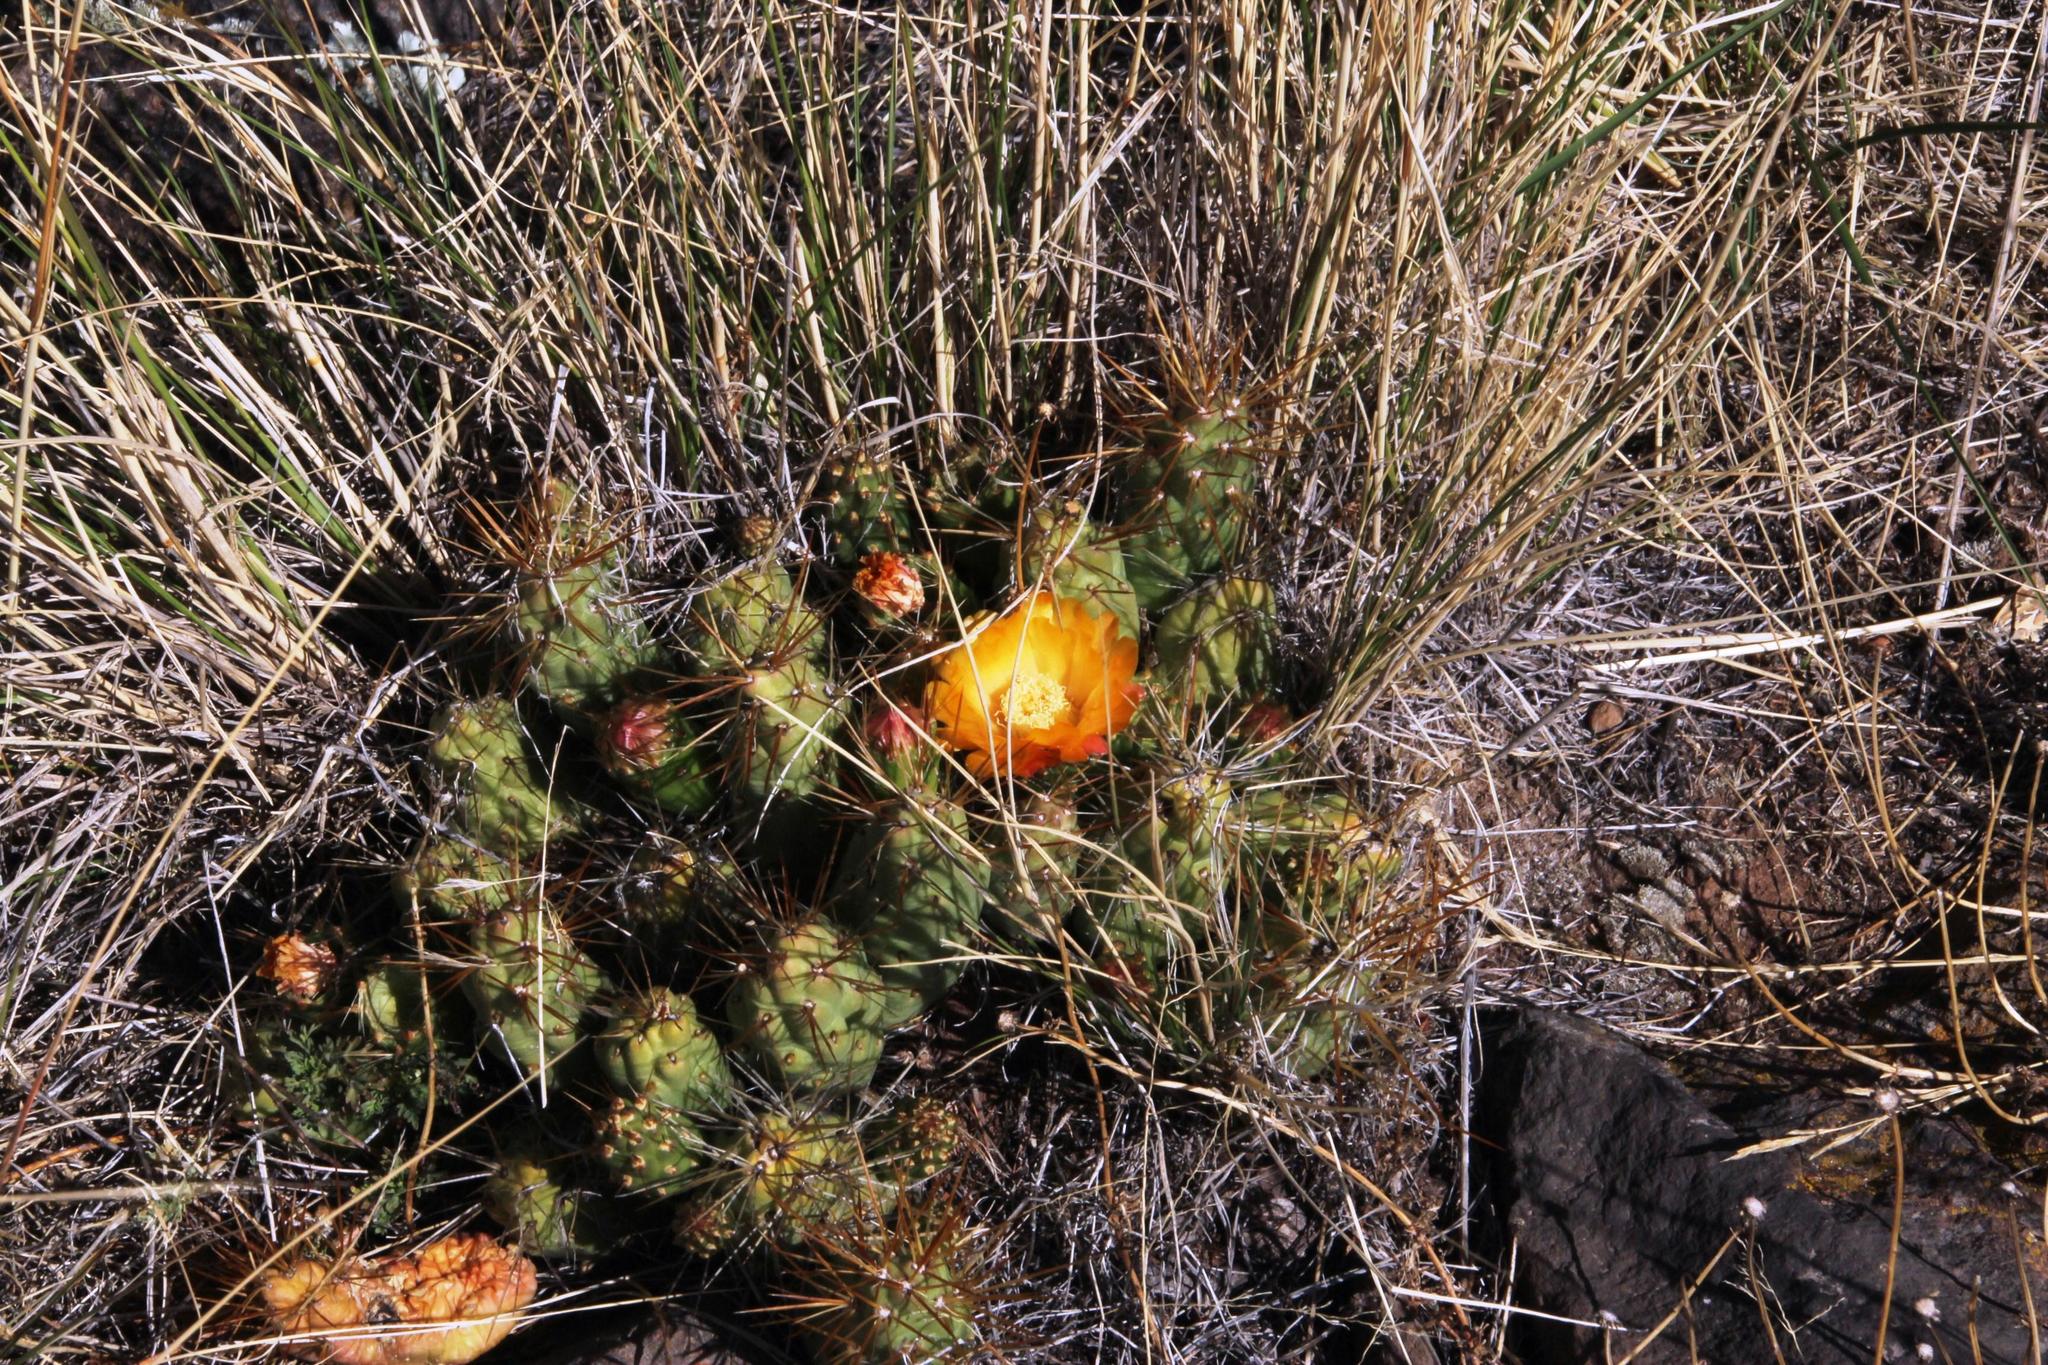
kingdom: Plantae
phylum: Tracheophyta
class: Magnoliopsida
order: Caryophyllales
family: Cactaceae
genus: Cumulopuntia
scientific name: Cumulopuntia boliviana
